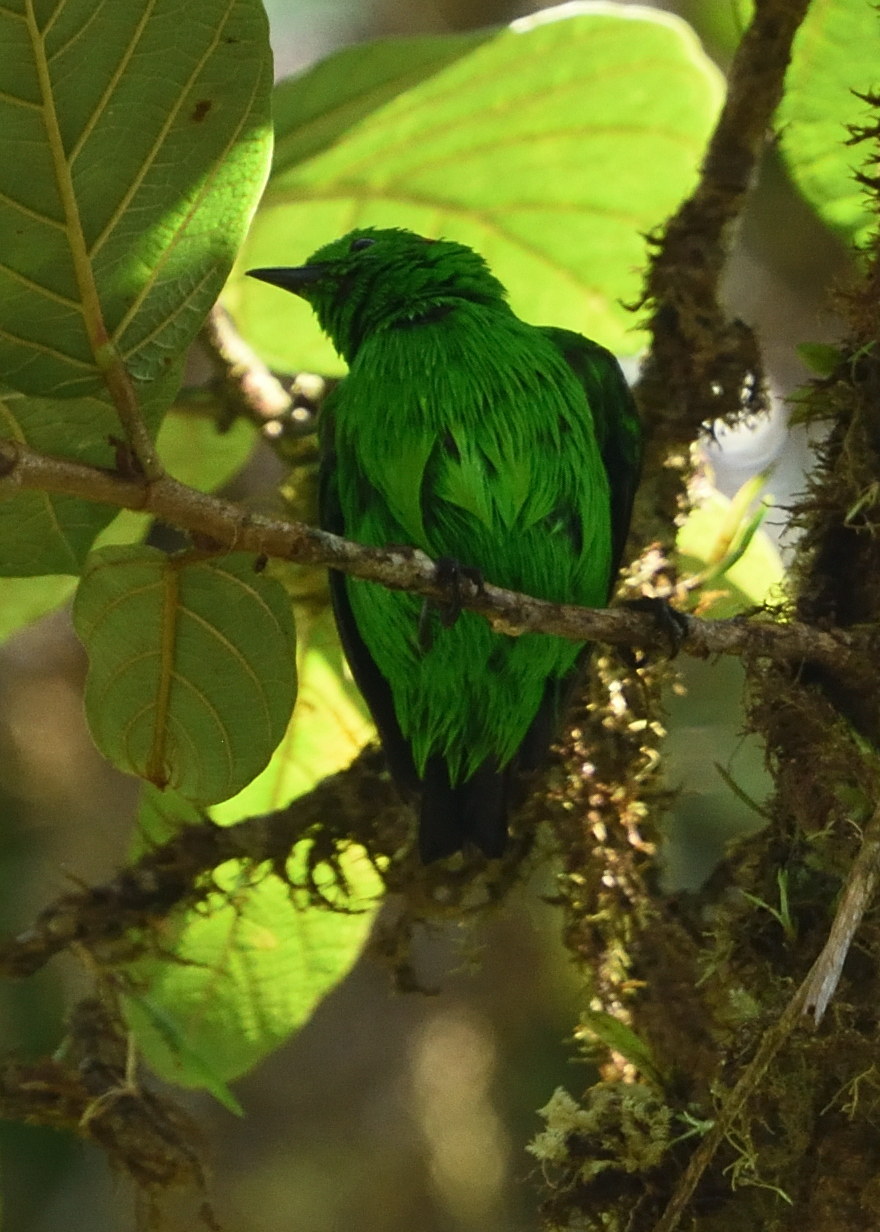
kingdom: Animalia
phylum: Chordata
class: Aves
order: Passeriformes
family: Thraupidae
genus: Chlorochrysa
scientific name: Chlorochrysa phoenicotis
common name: Glistening-green tanager
